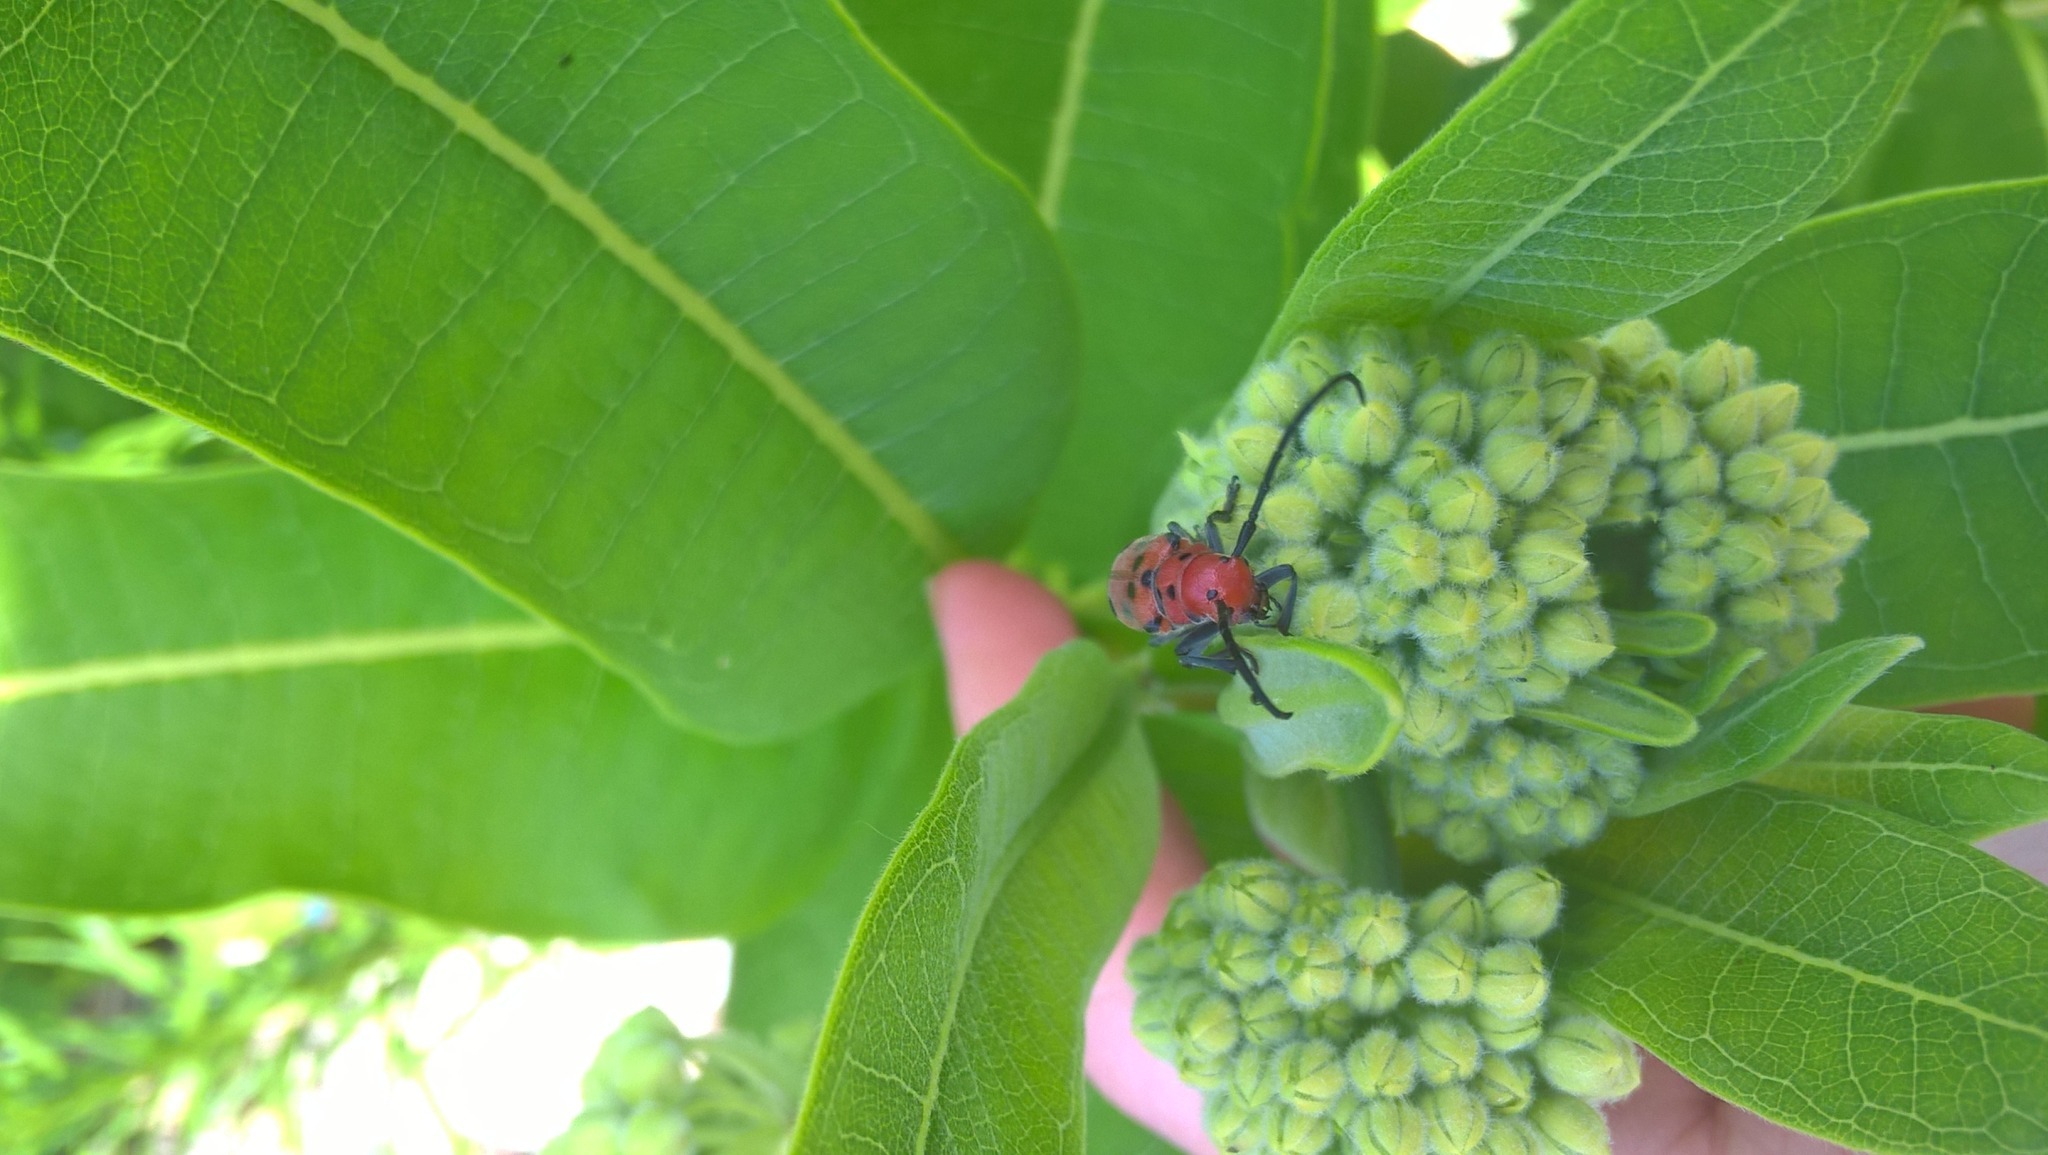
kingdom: Animalia
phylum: Arthropoda
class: Insecta
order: Coleoptera
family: Cerambycidae
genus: Tetraopes
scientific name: Tetraopes tetrophthalmus
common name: Red milkweed beetle
